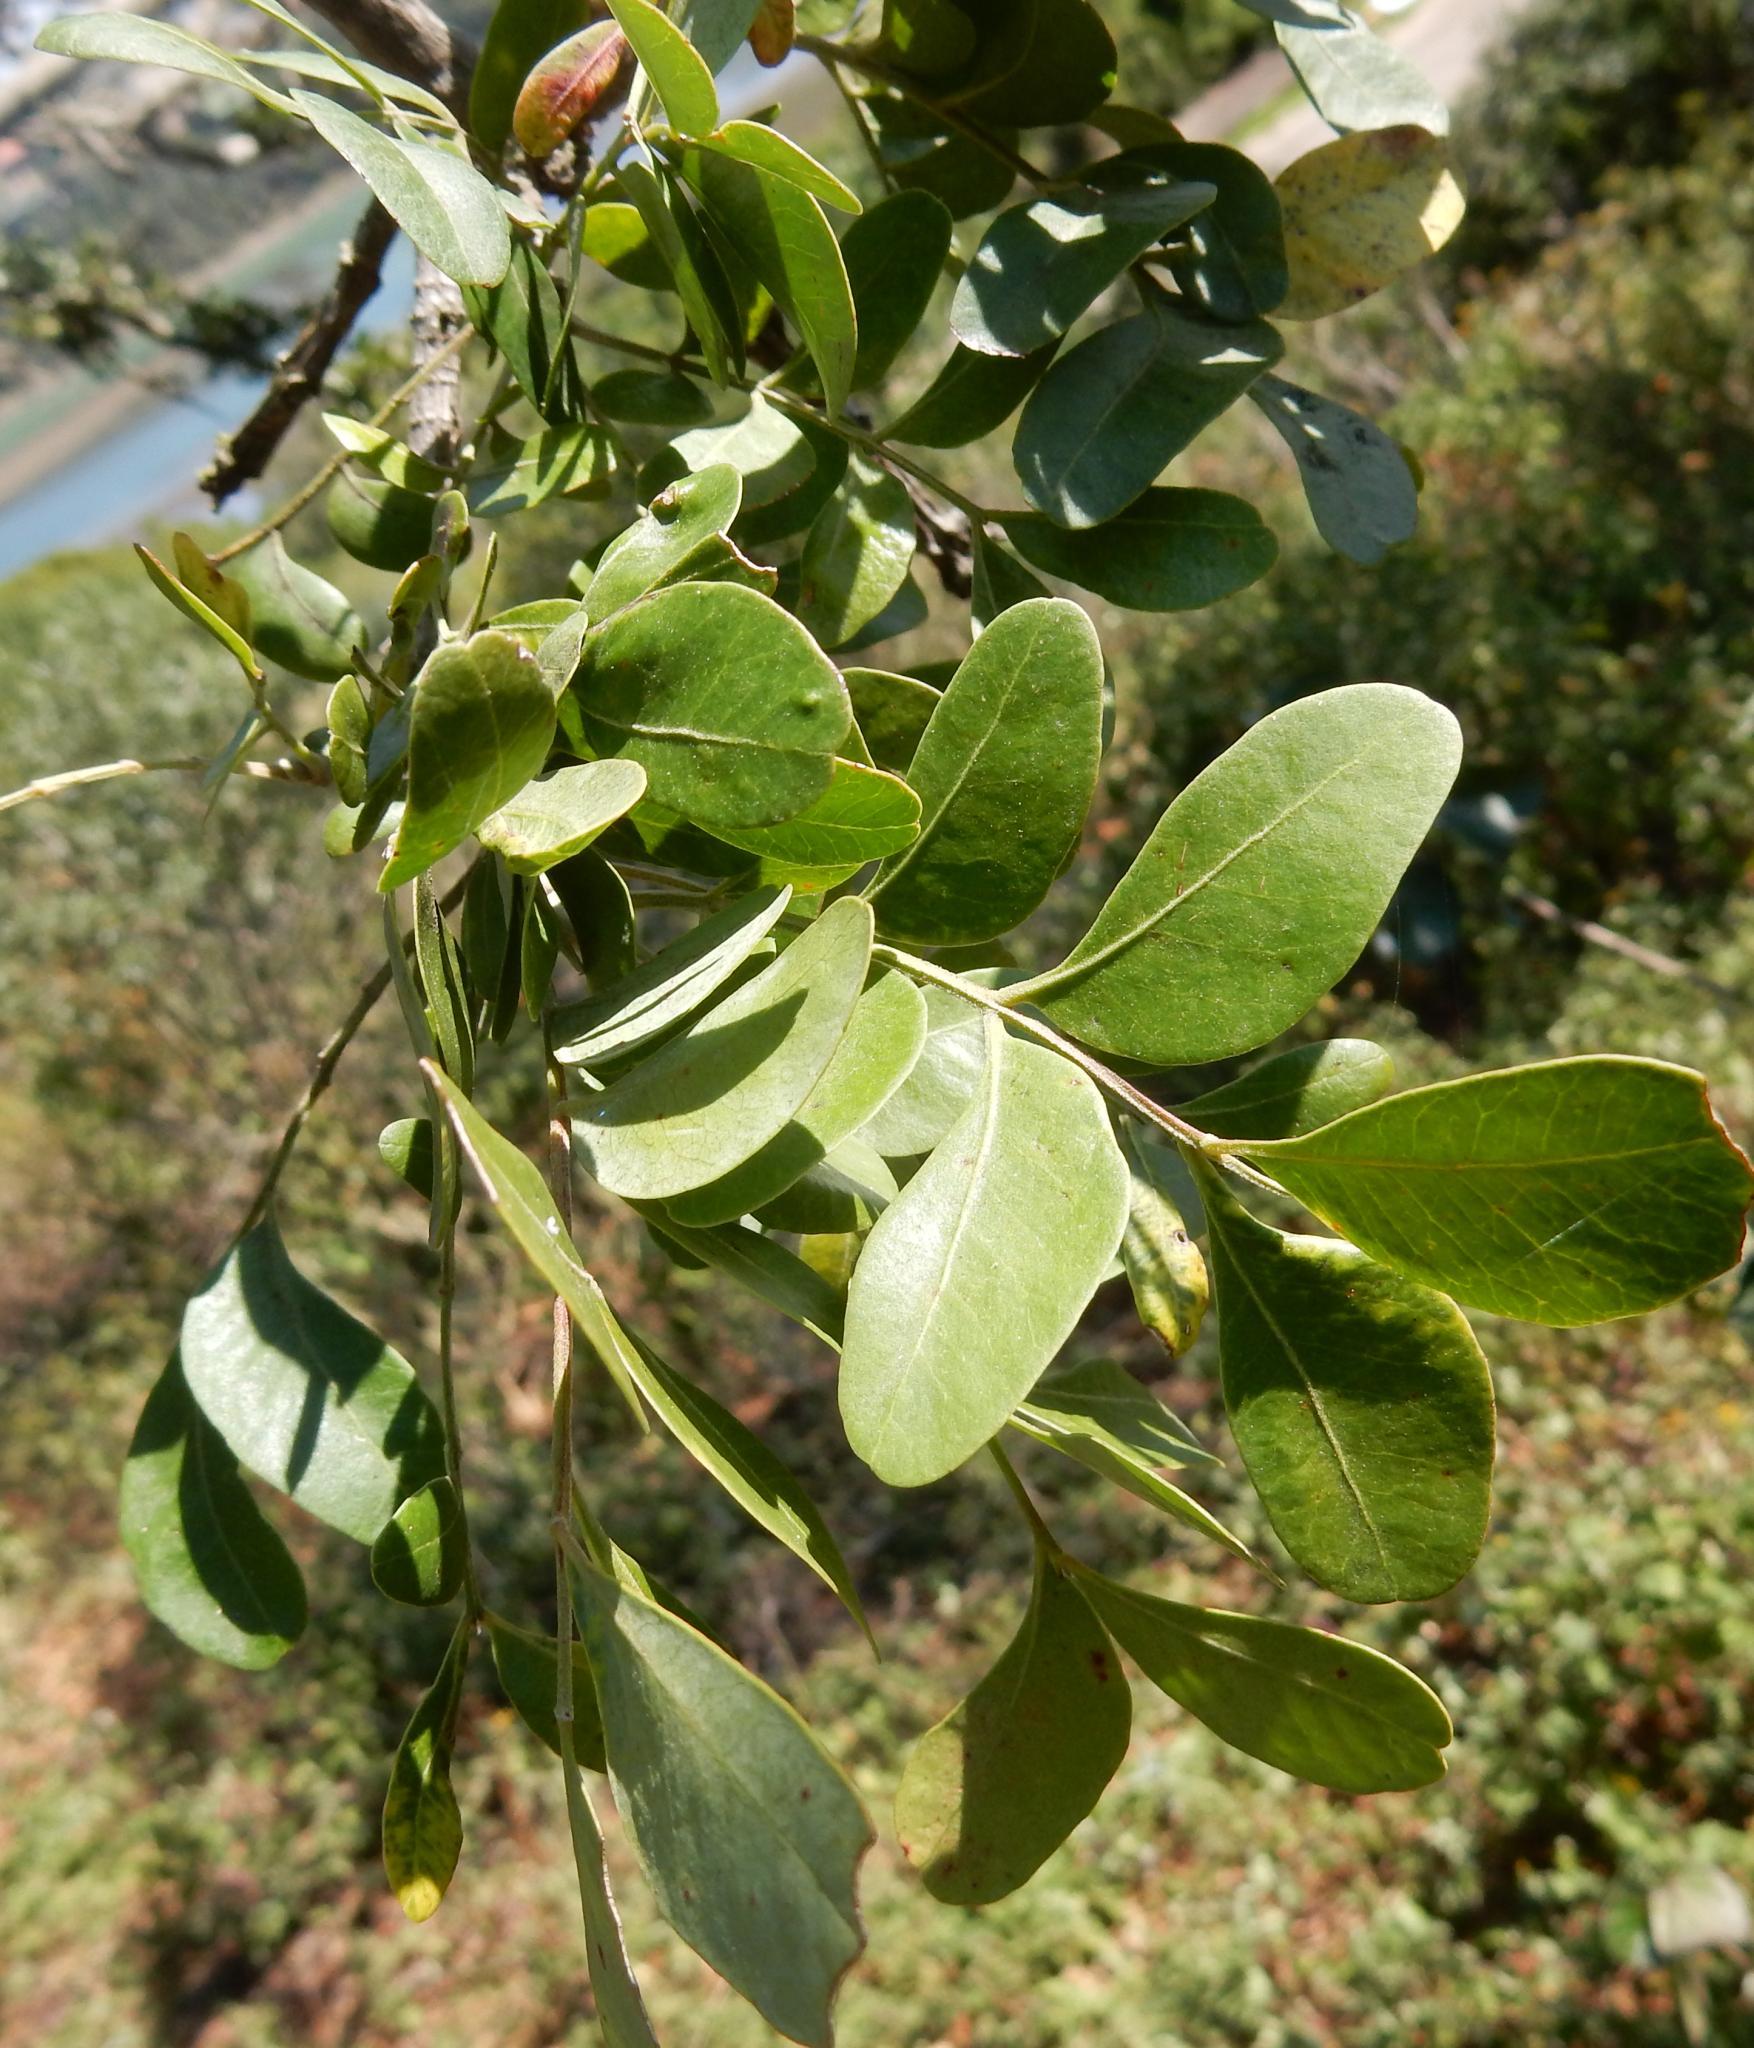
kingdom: Plantae
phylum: Tracheophyta
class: Magnoliopsida
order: Sapindales
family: Rutaceae
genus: Ptaeroxylon
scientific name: Ptaeroxylon obliquum
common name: Sneezewood
